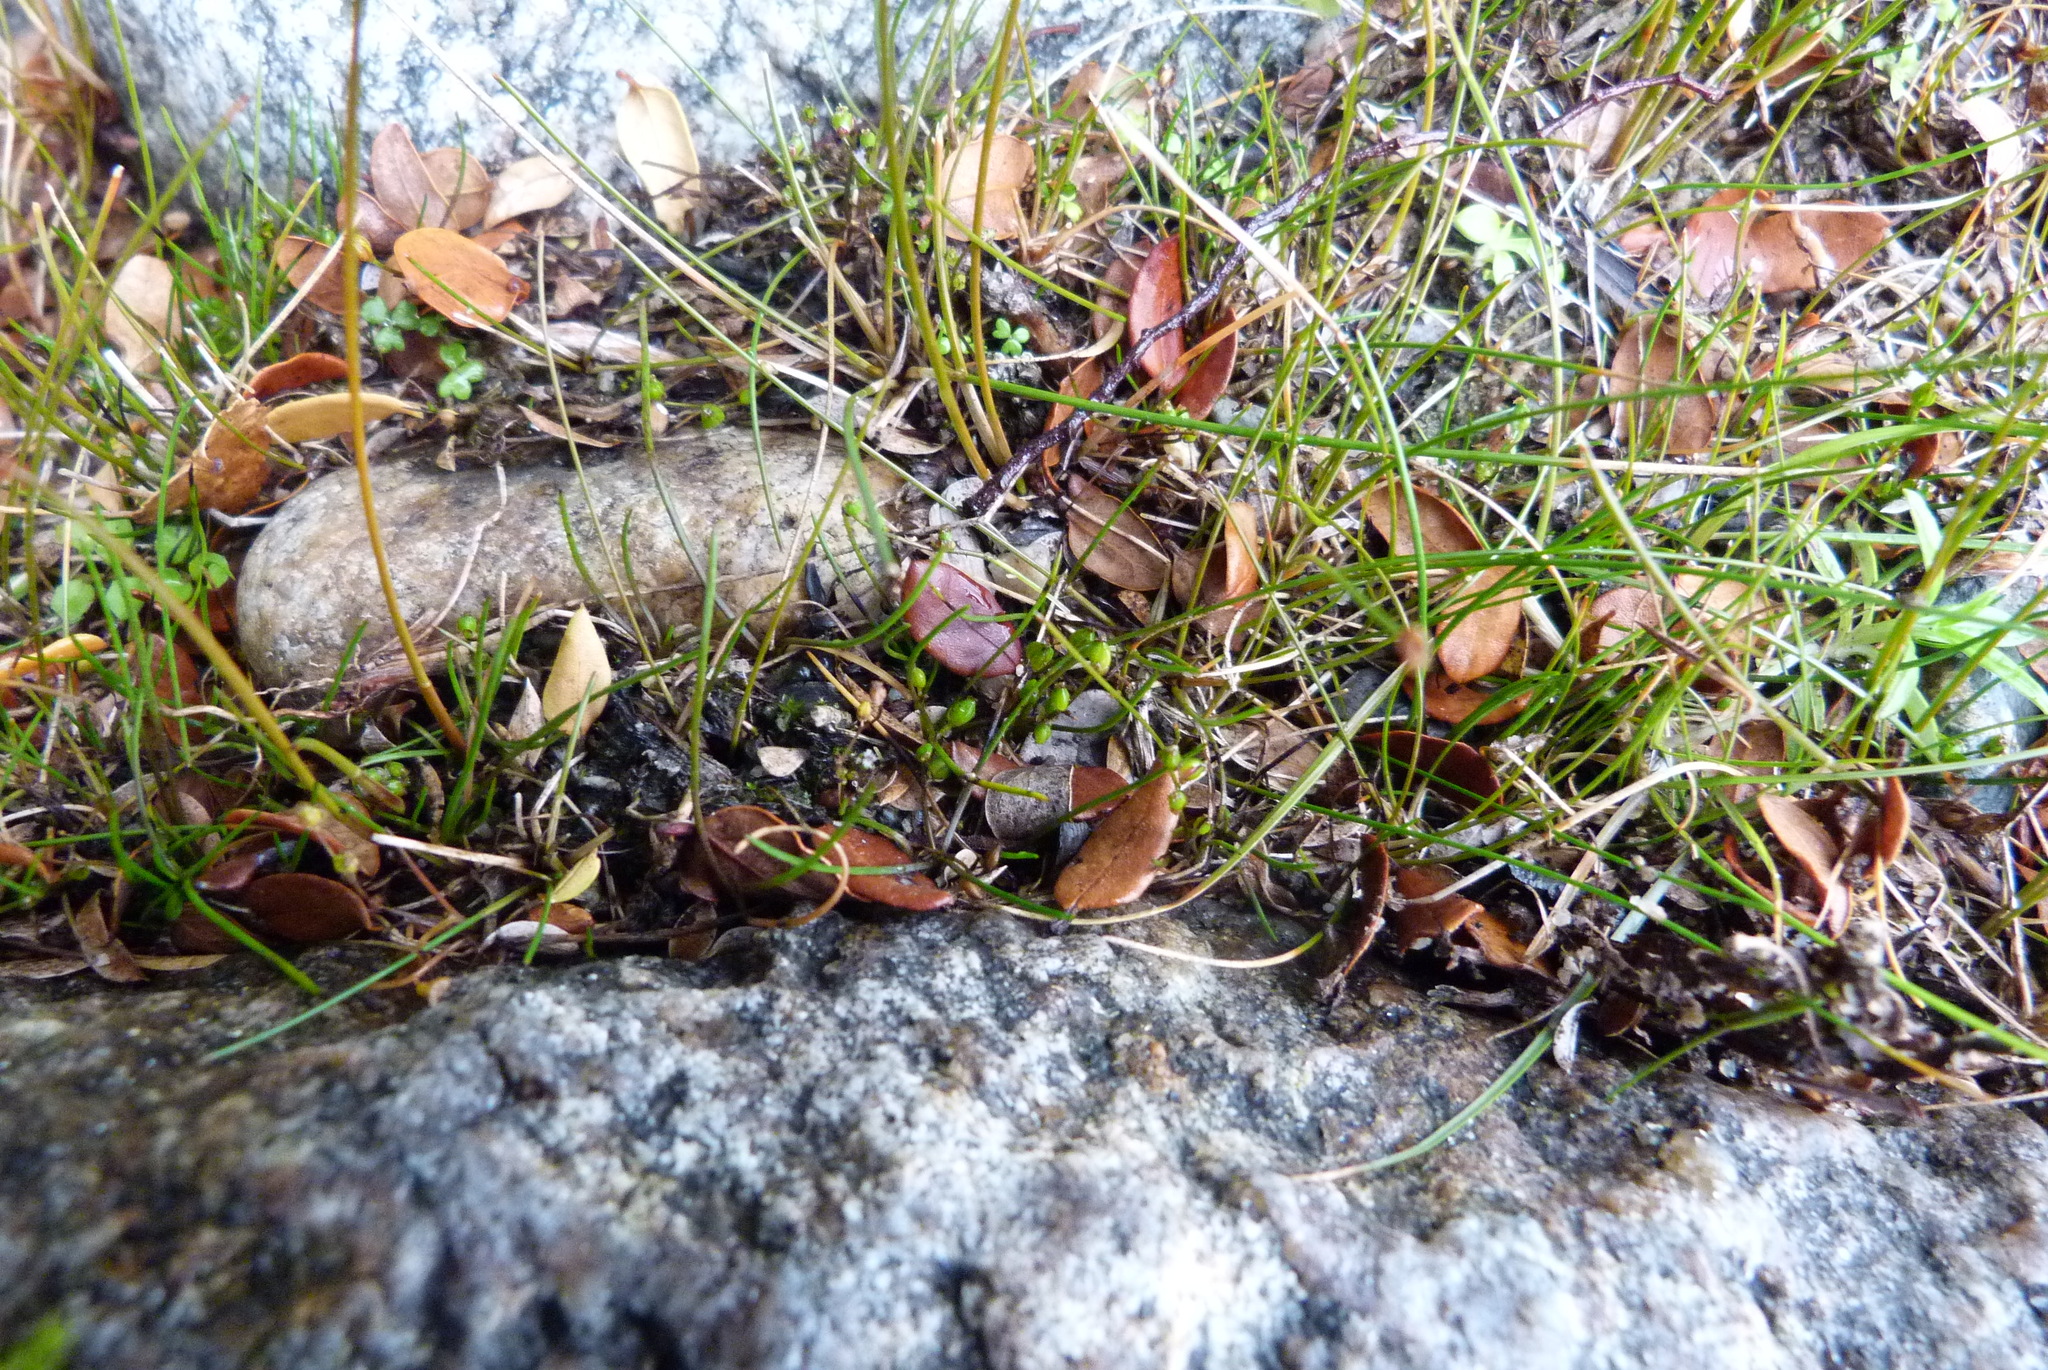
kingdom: Plantae
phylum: Tracheophyta
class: Liliopsida
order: Alismatales
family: Juncaginaceae
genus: Triglochin
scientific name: Triglochin striata
